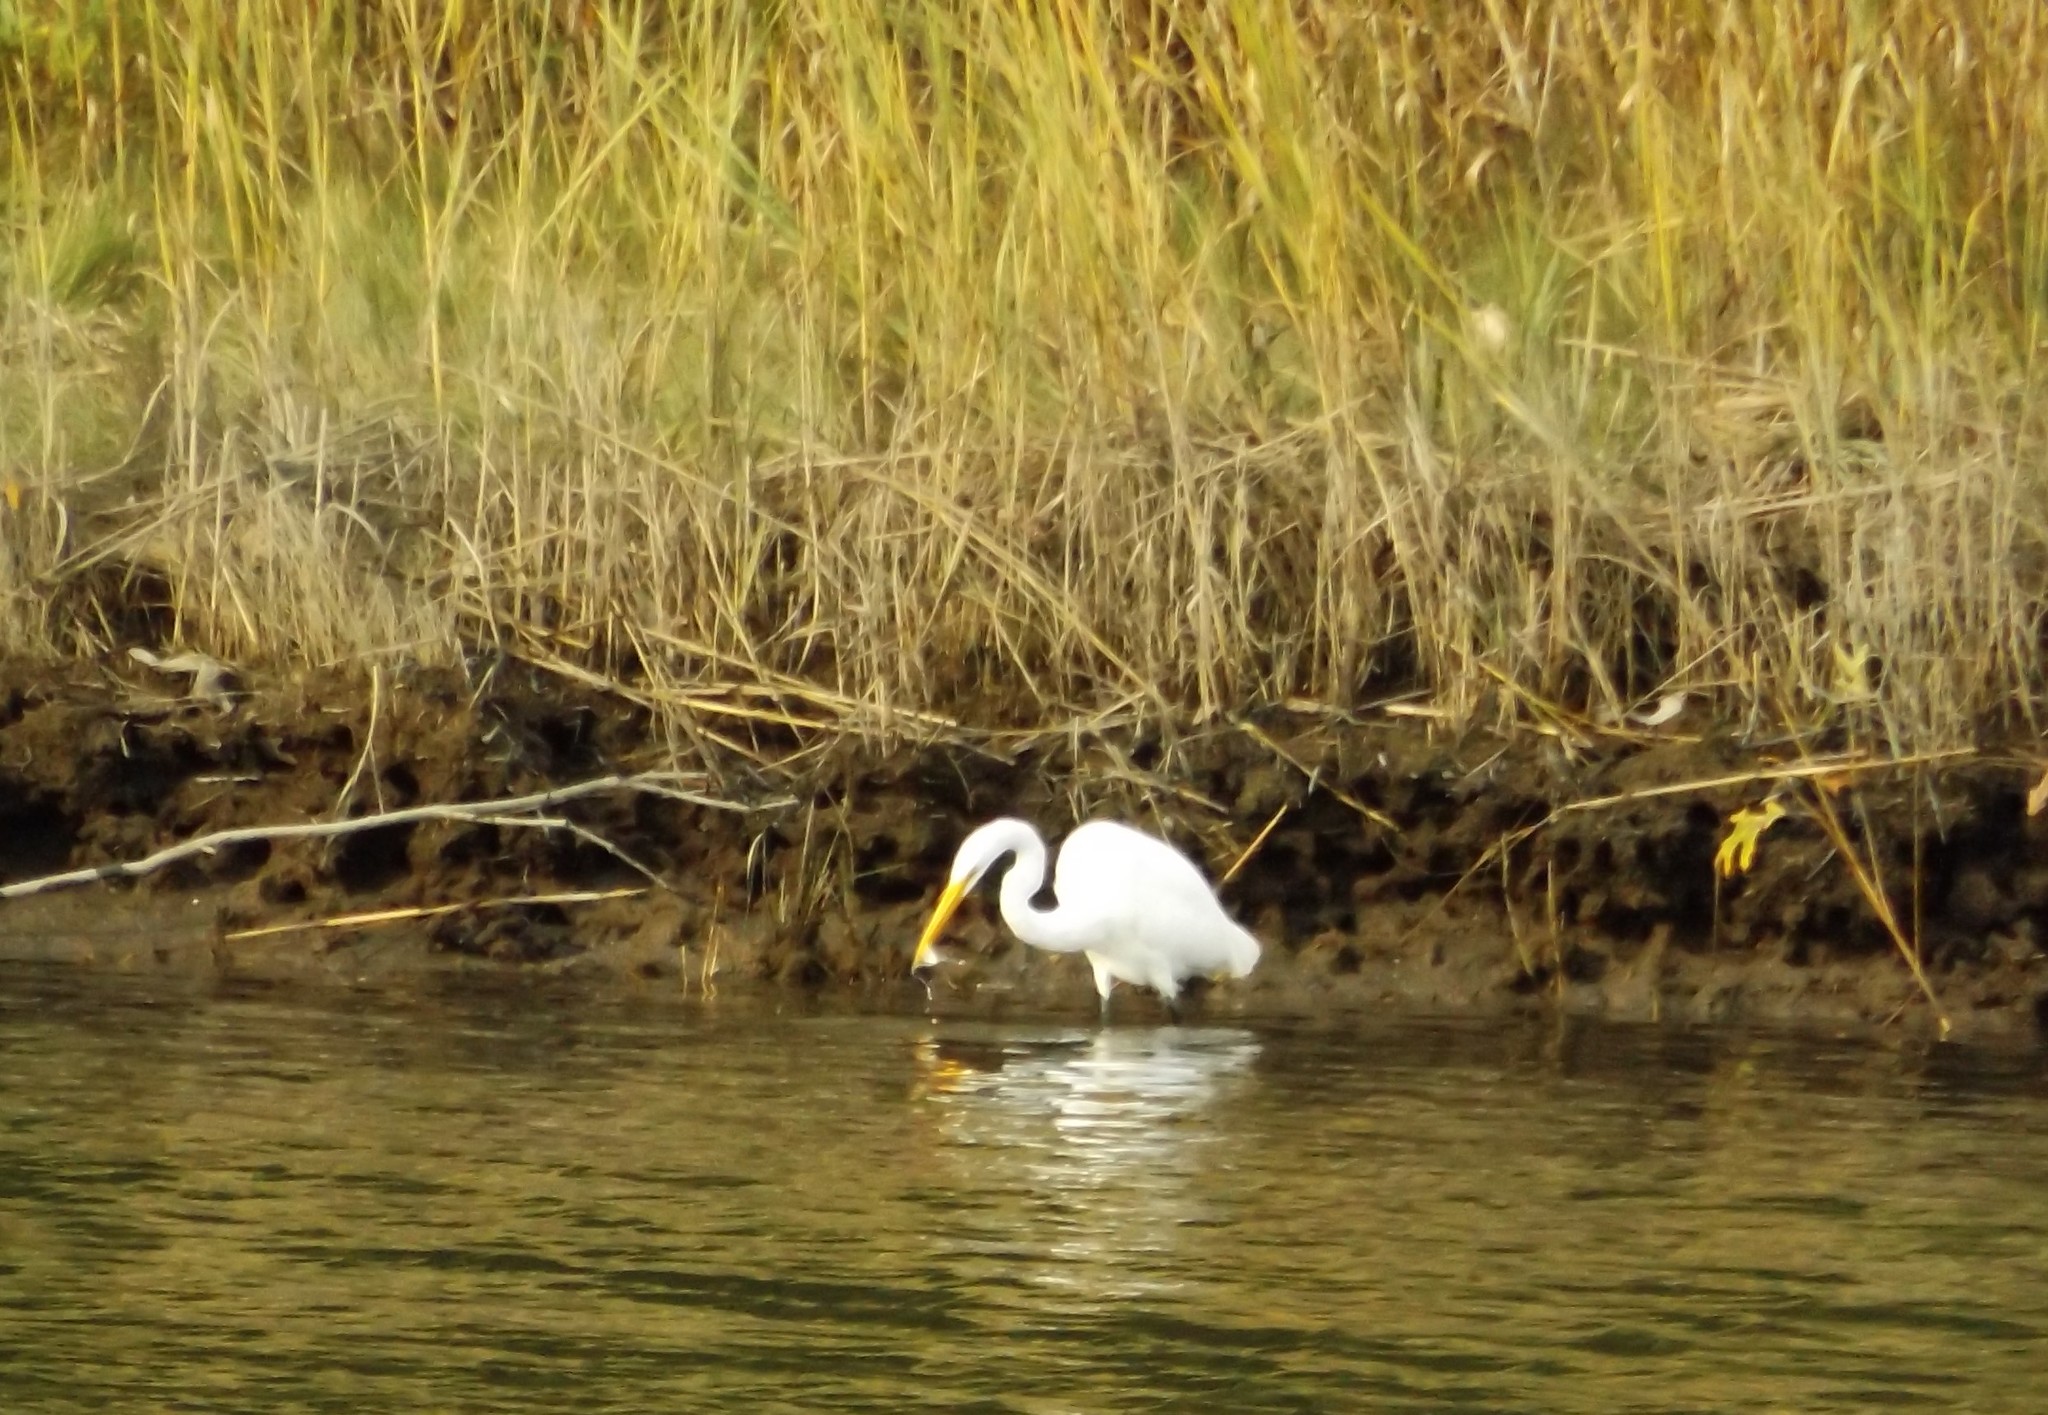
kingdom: Animalia
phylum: Chordata
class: Aves
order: Pelecaniformes
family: Ardeidae
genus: Ardea
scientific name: Ardea alba
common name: Great egret
